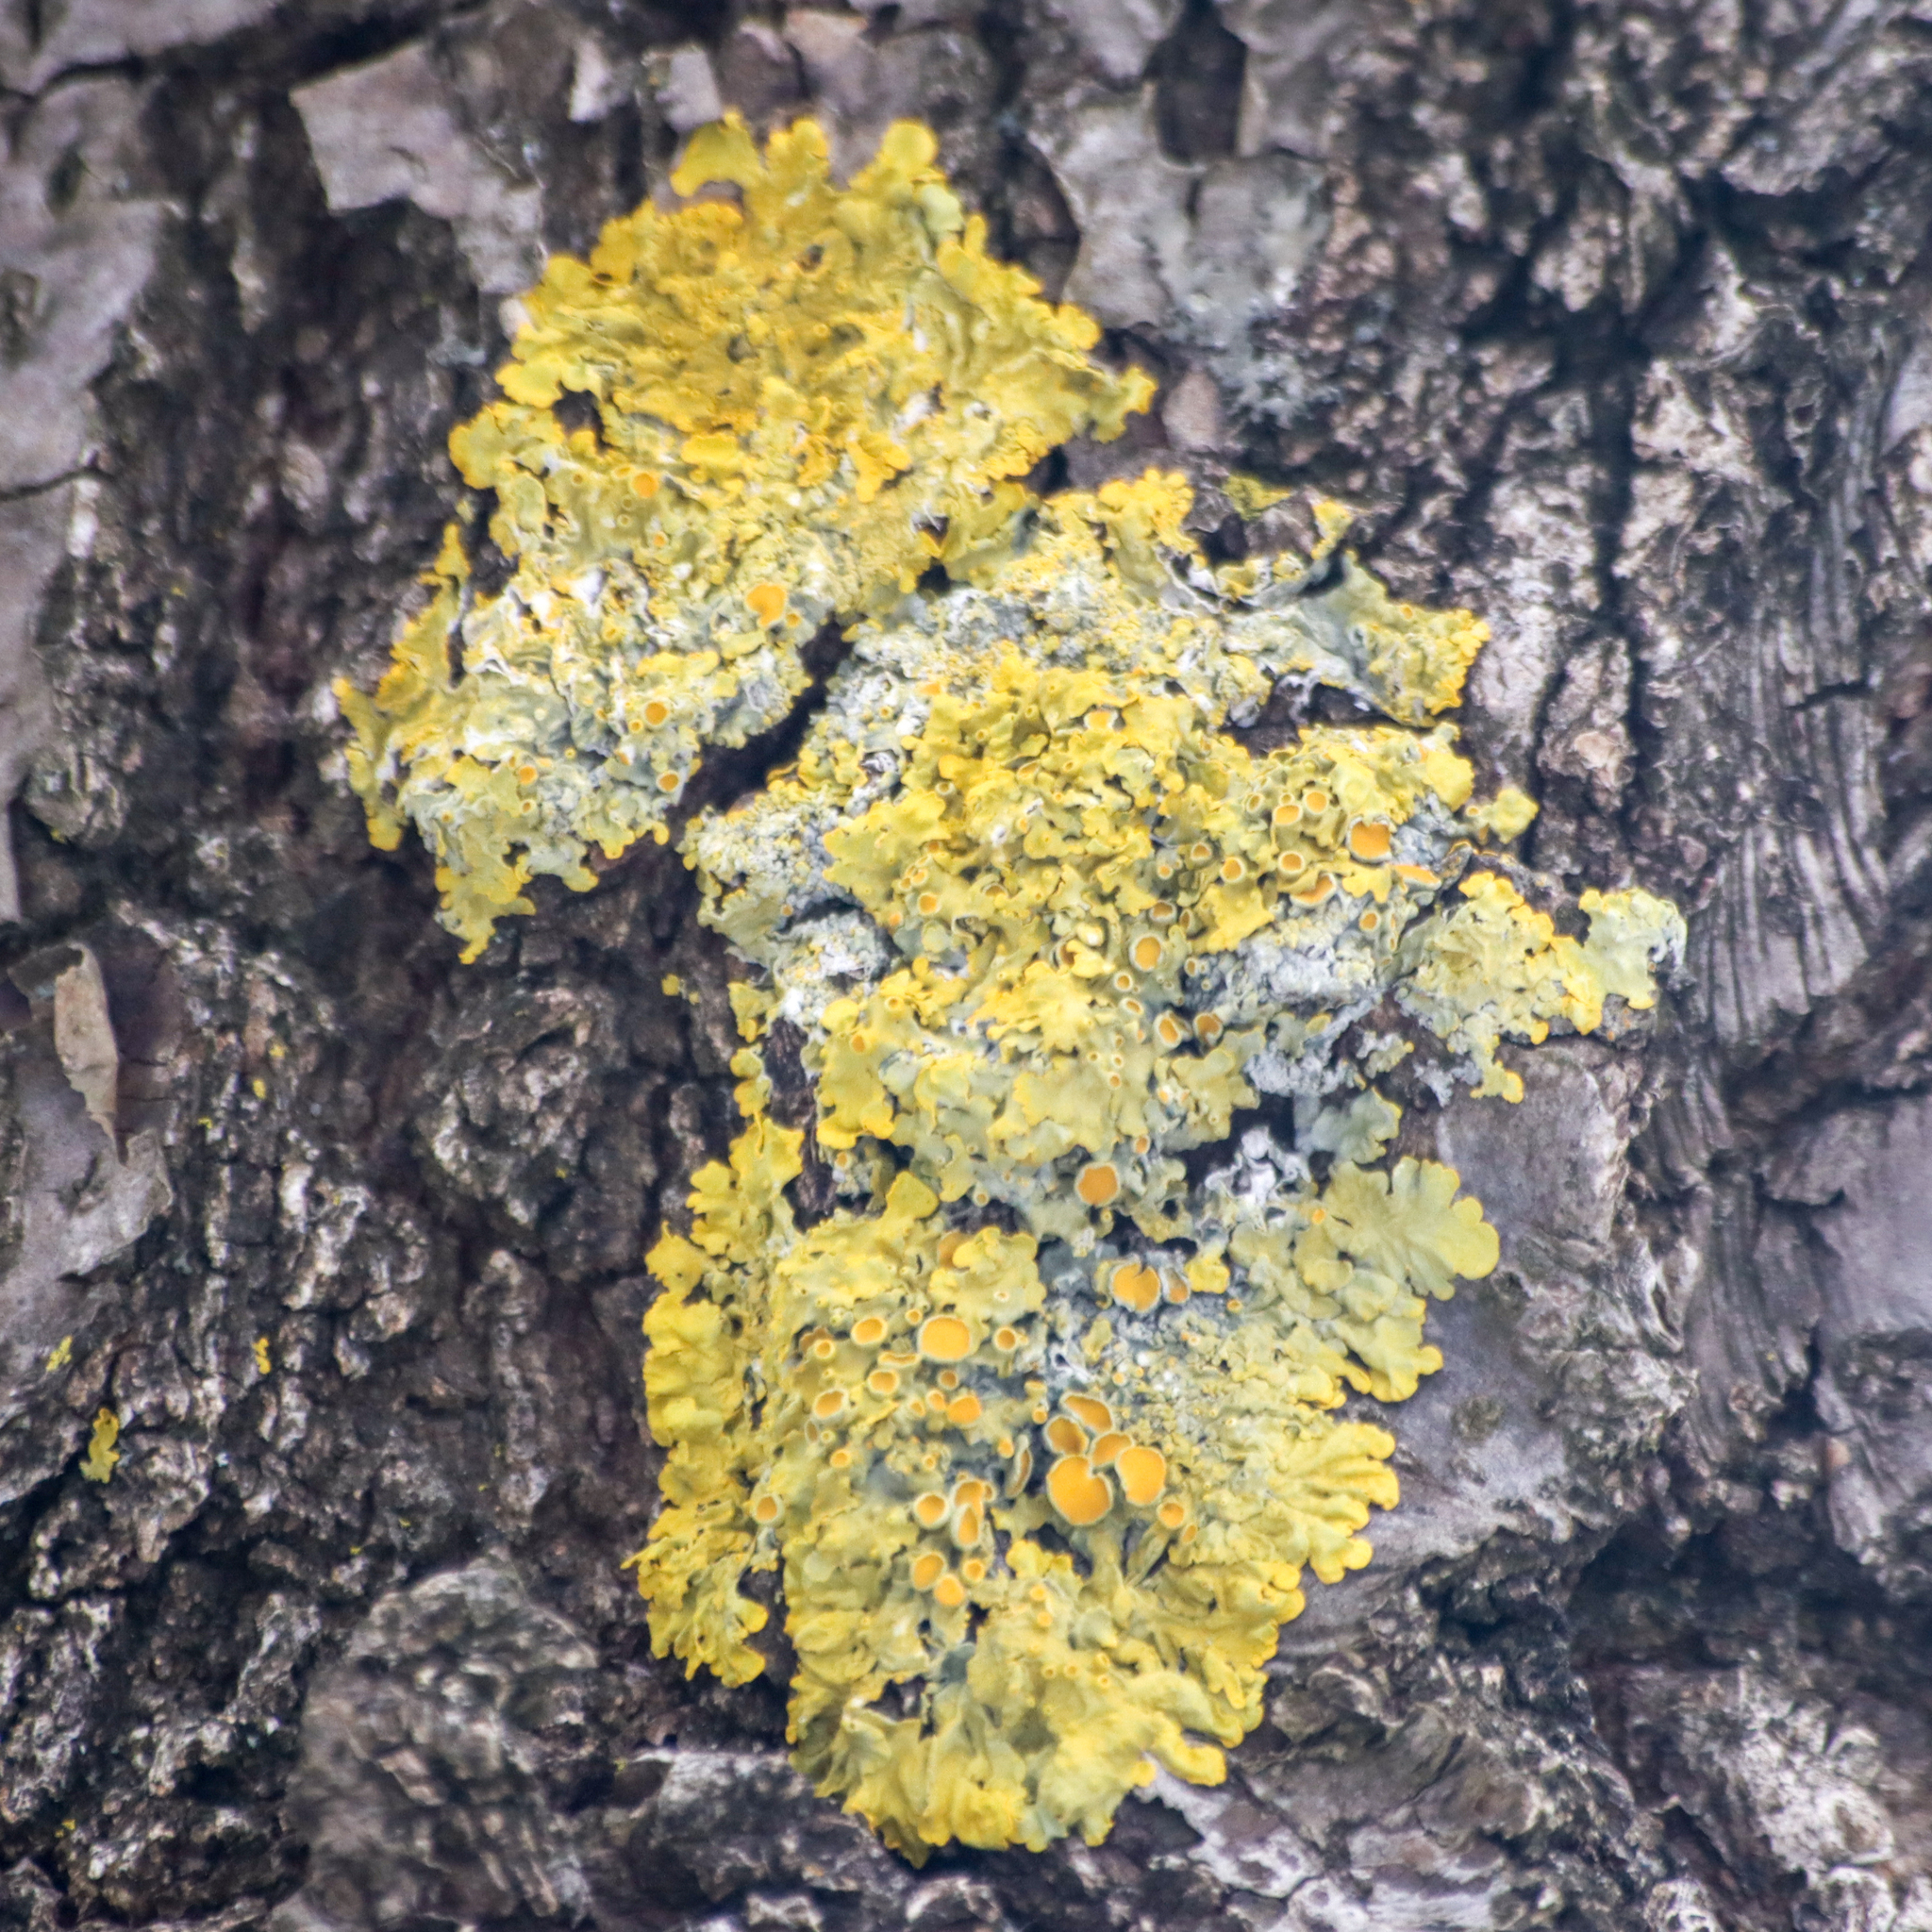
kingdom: Fungi
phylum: Ascomycota
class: Lecanoromycetes
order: Teloschistales
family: Teloschistaceae
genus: Xanthoria
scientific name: Xanthoria parietina
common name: Common orange lichen
